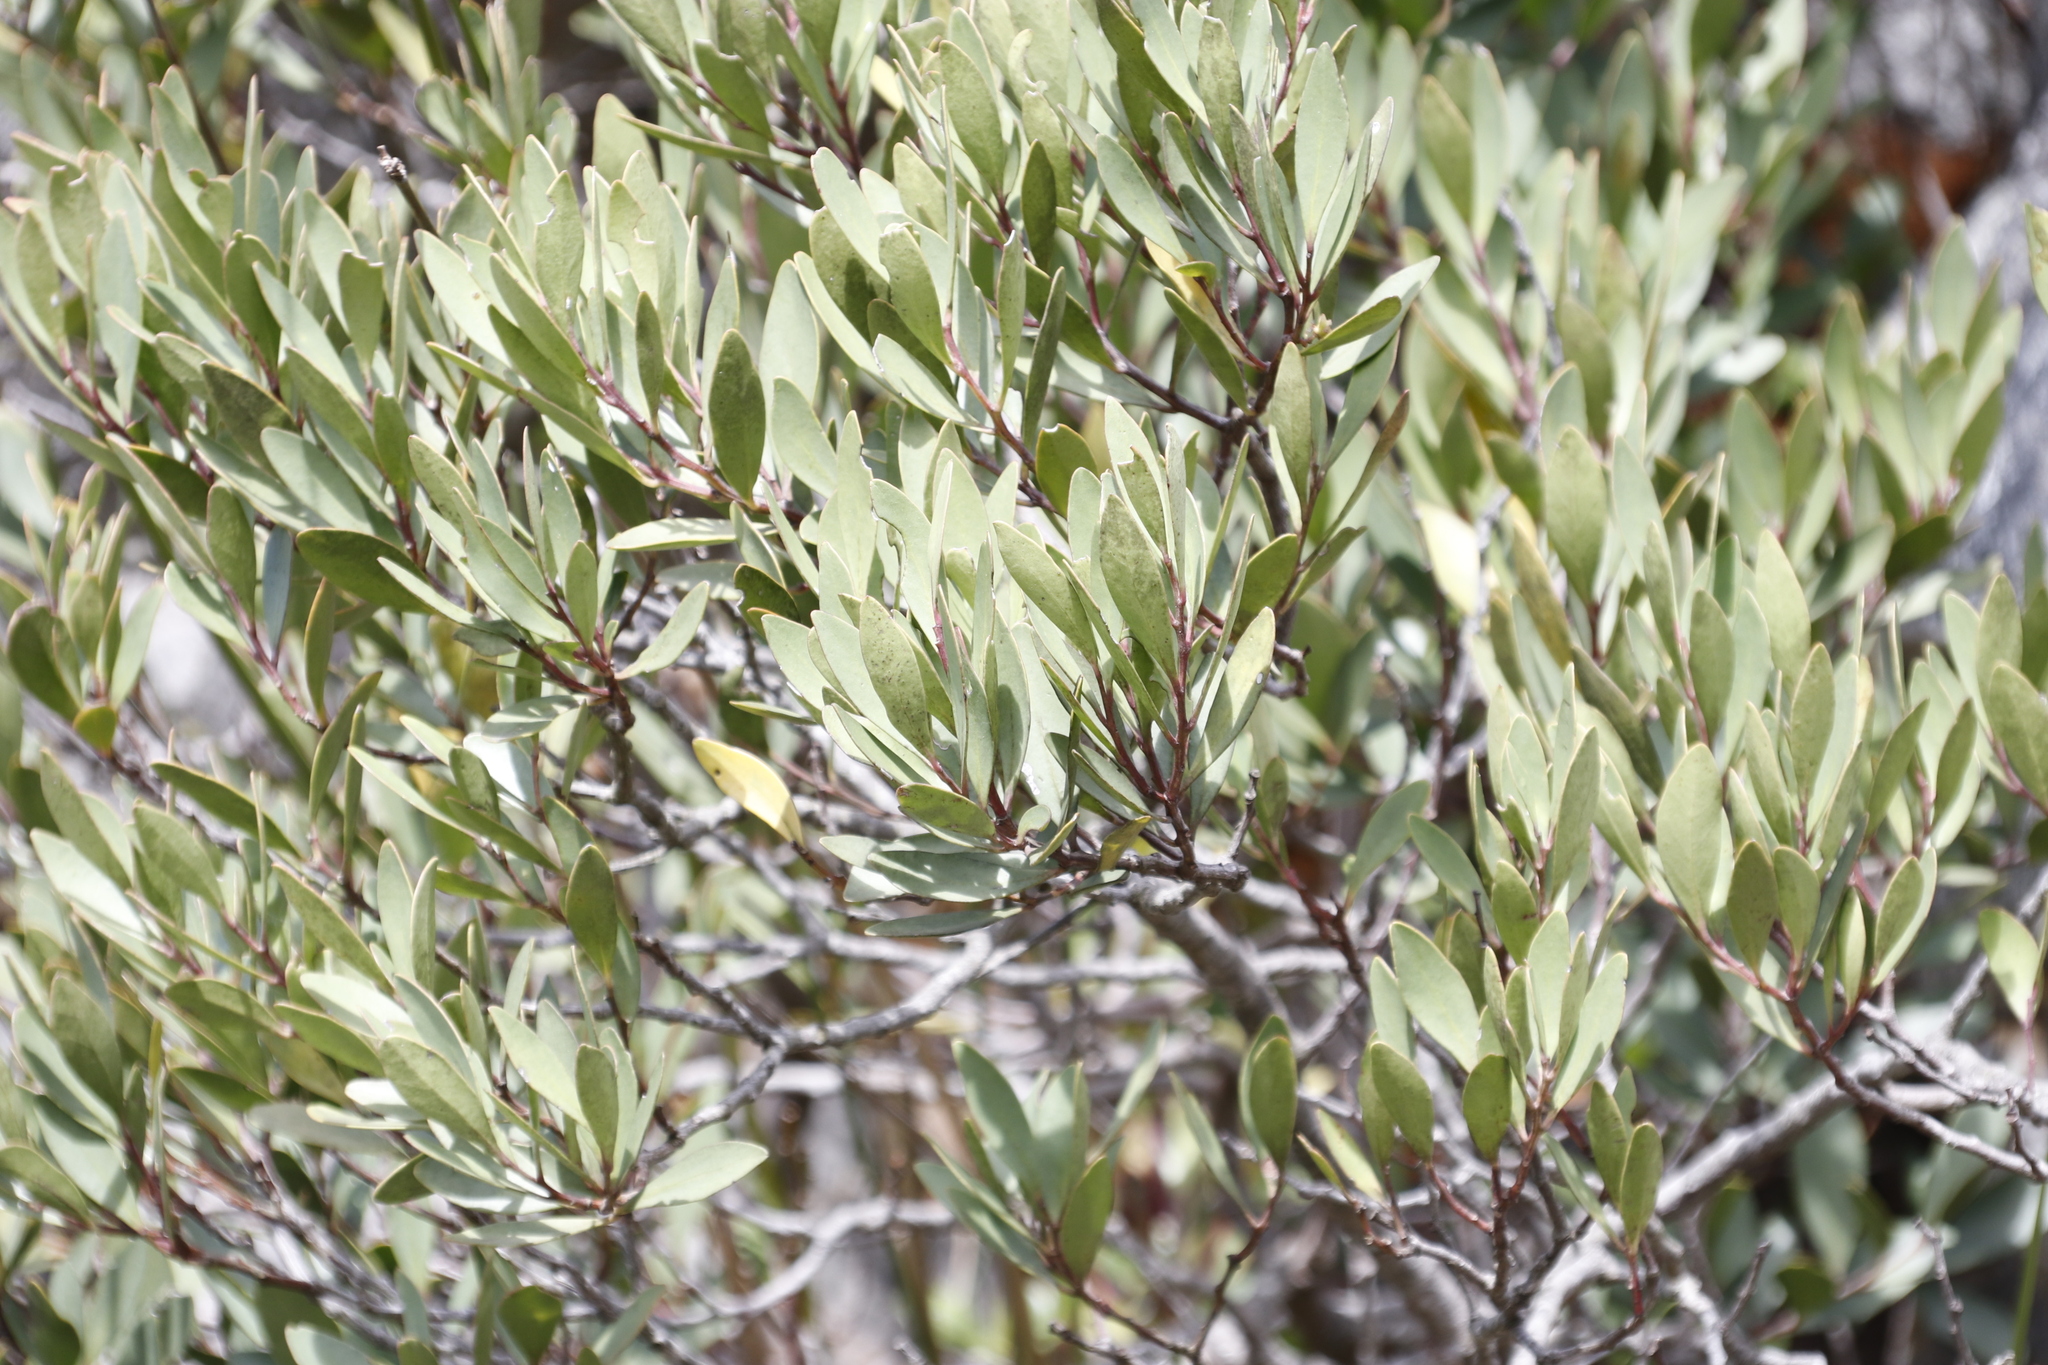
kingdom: Plantae
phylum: Tracheophyta
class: Magnoliopsida
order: Celastrales
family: Celastraceae
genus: Gymnosporia
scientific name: Gymnosporia laurina
